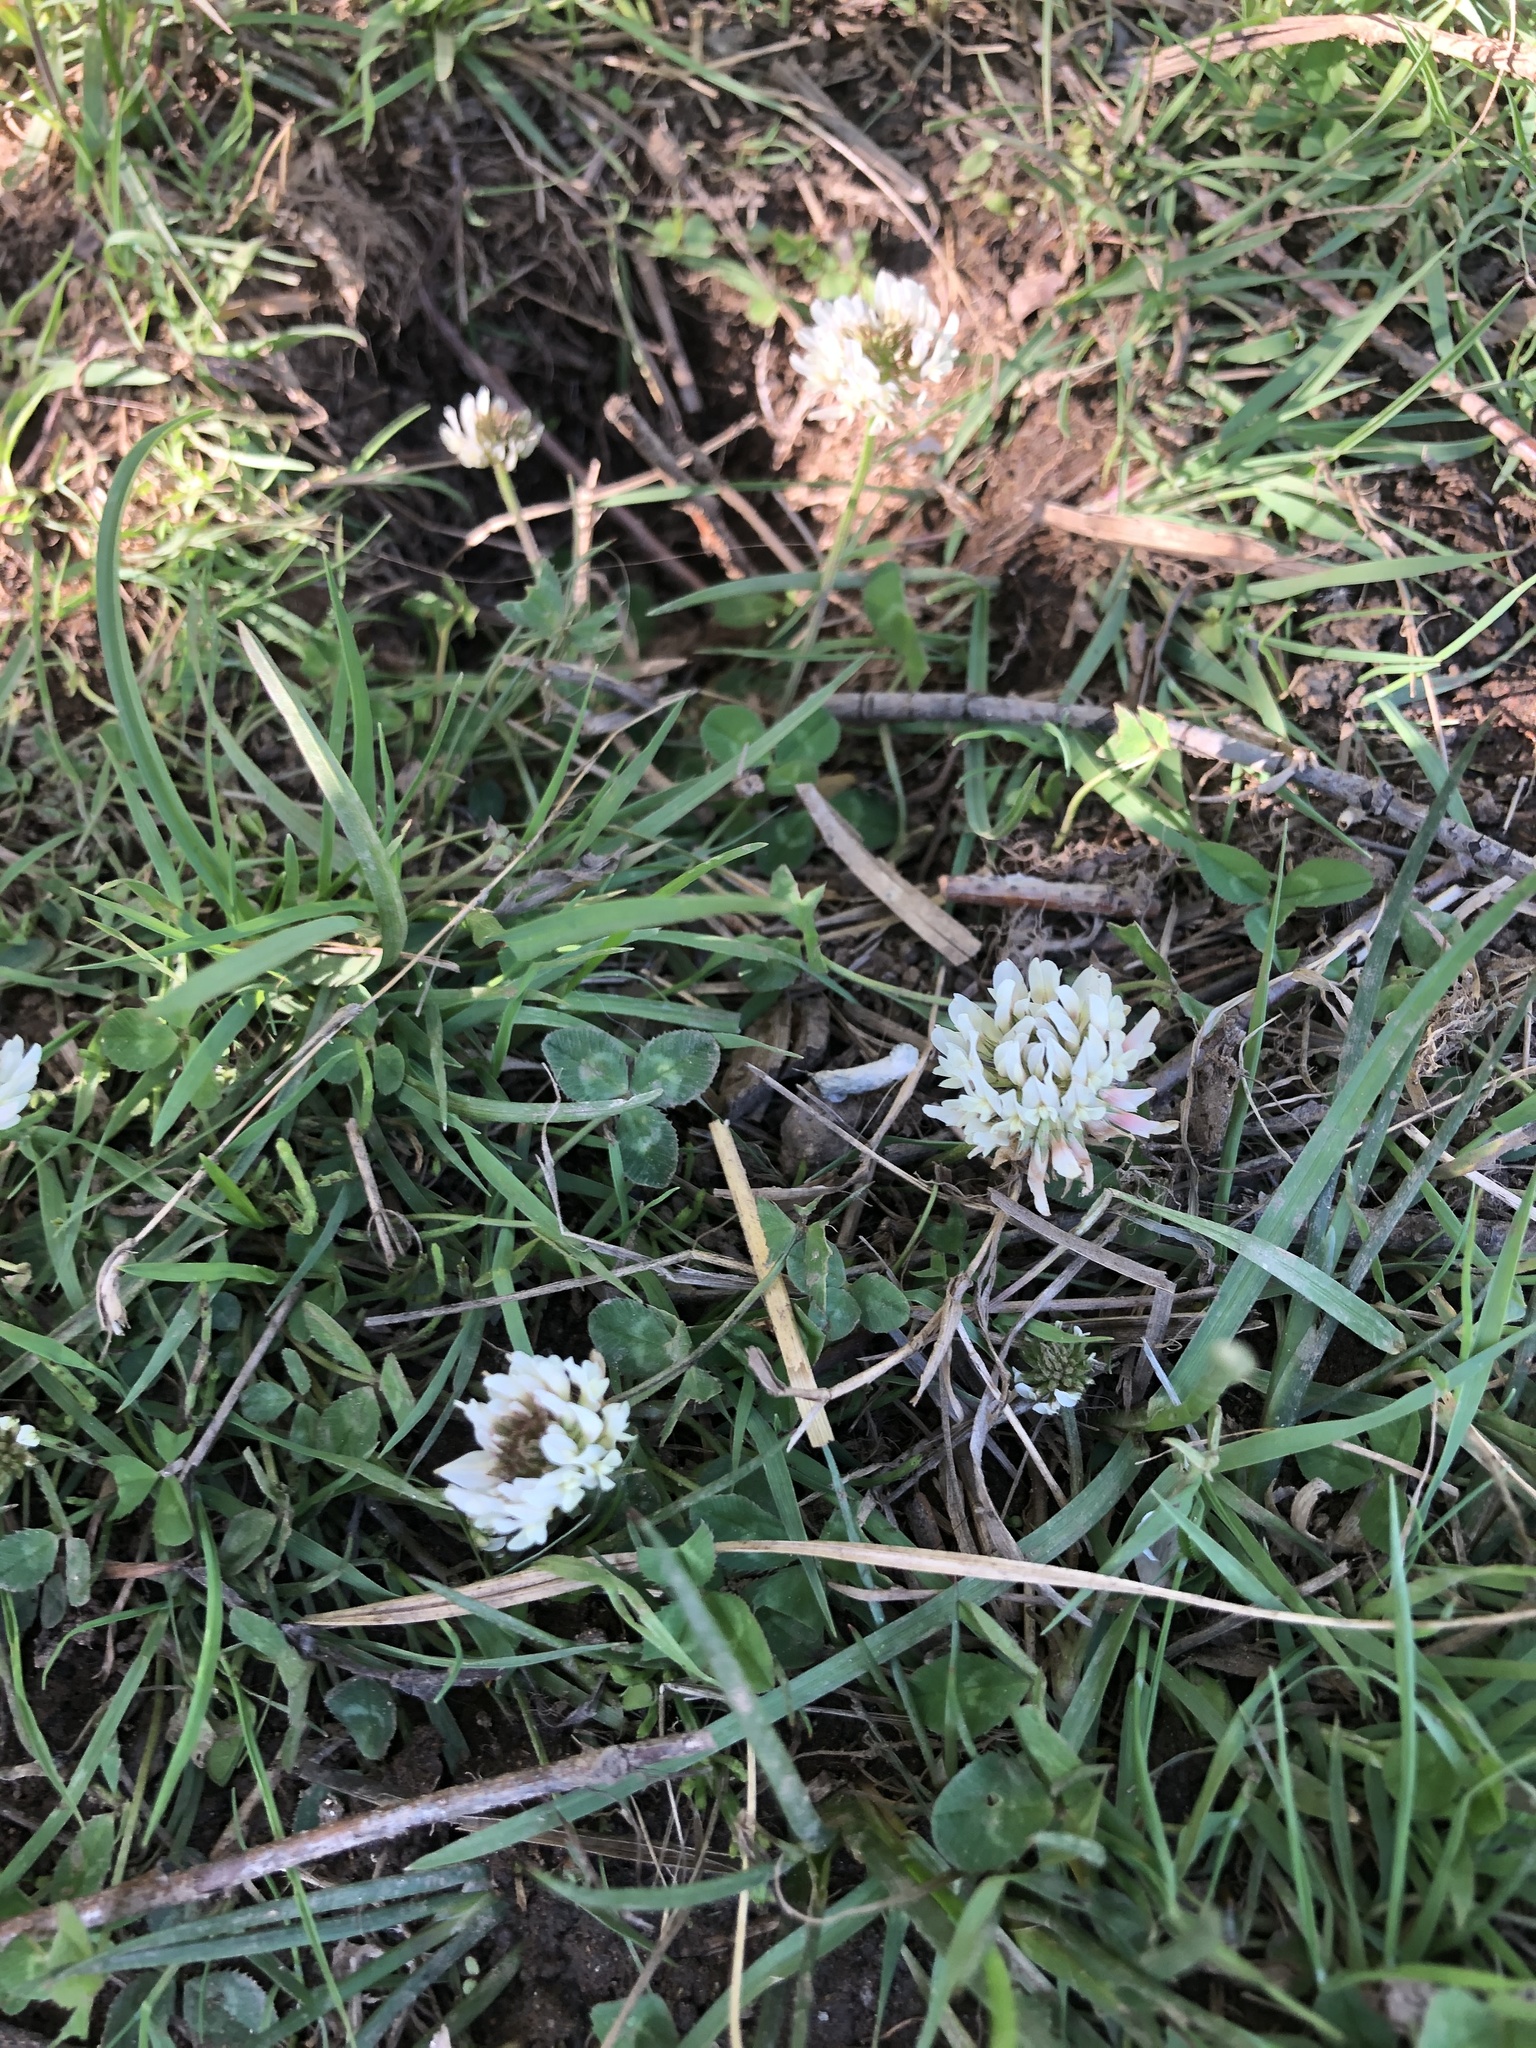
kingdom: Plantae
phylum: Tracheophyta
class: Magnoliopsida
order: Fabales
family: Fabaceae
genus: Trifolium
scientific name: Trifolium repens
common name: White clover
